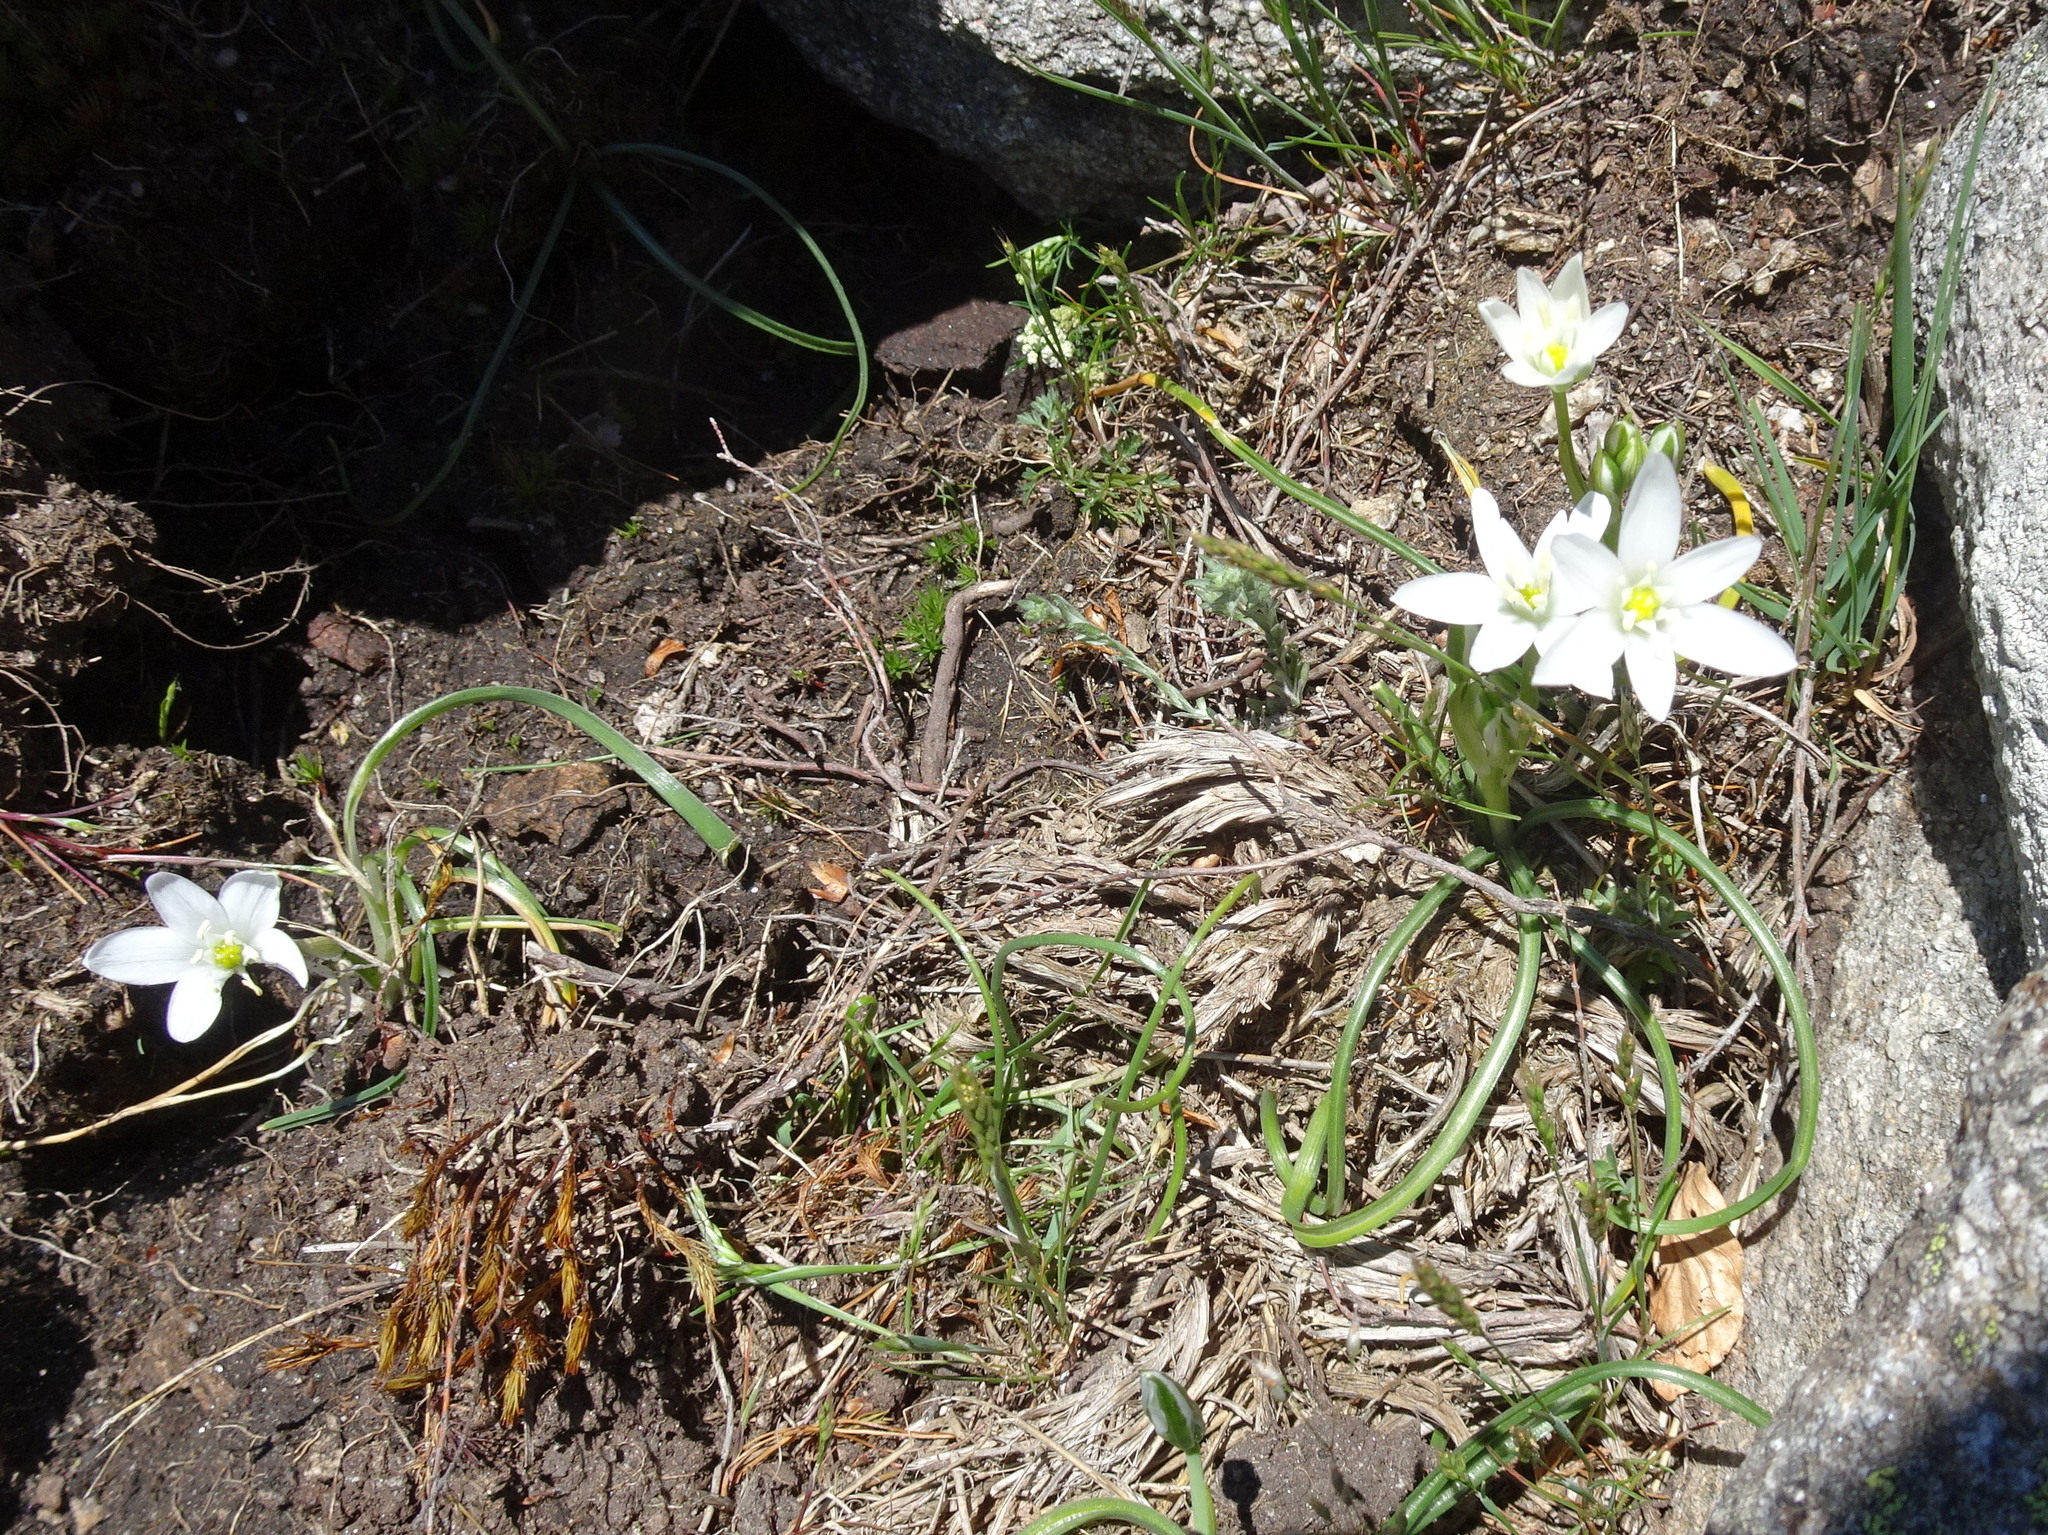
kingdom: Plantae
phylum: Tracheophyta
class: Liliopsida
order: Asparagales
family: Asparagaceae
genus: Ornithogalum
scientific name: Ornithogalum umbellatum
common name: Garden star-of-bethlehem
